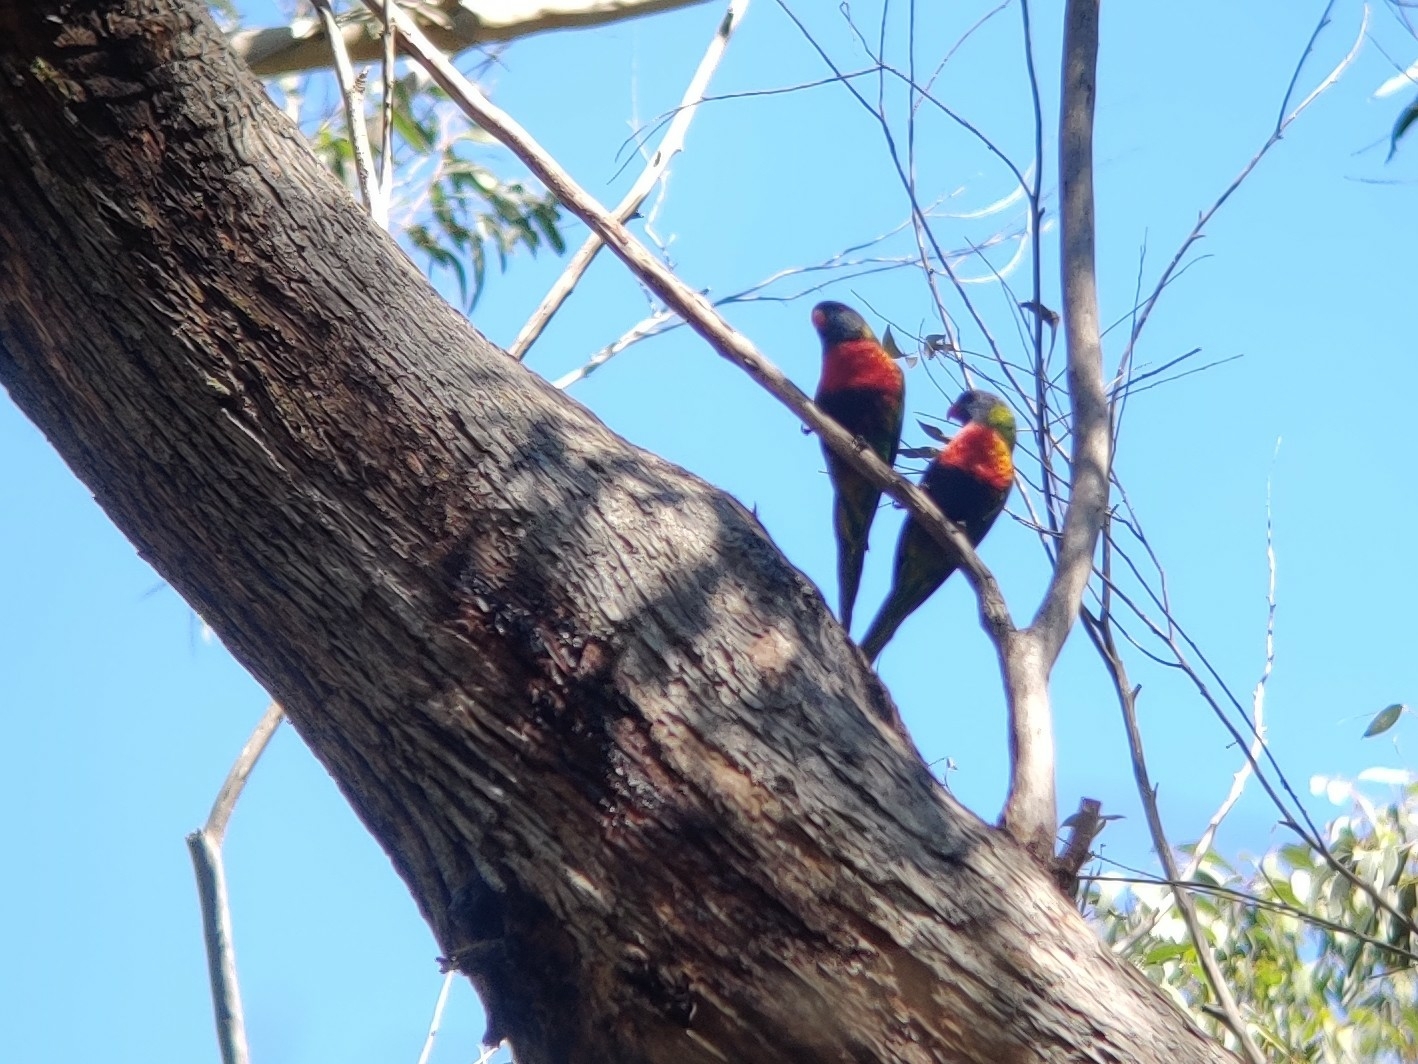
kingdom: Animalia
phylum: Chordata
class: Aves
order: Psittaciformes
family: Psittacidae
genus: Trichoglossus
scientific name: Trichoglossus haematodus
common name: Coconut lorikeet
